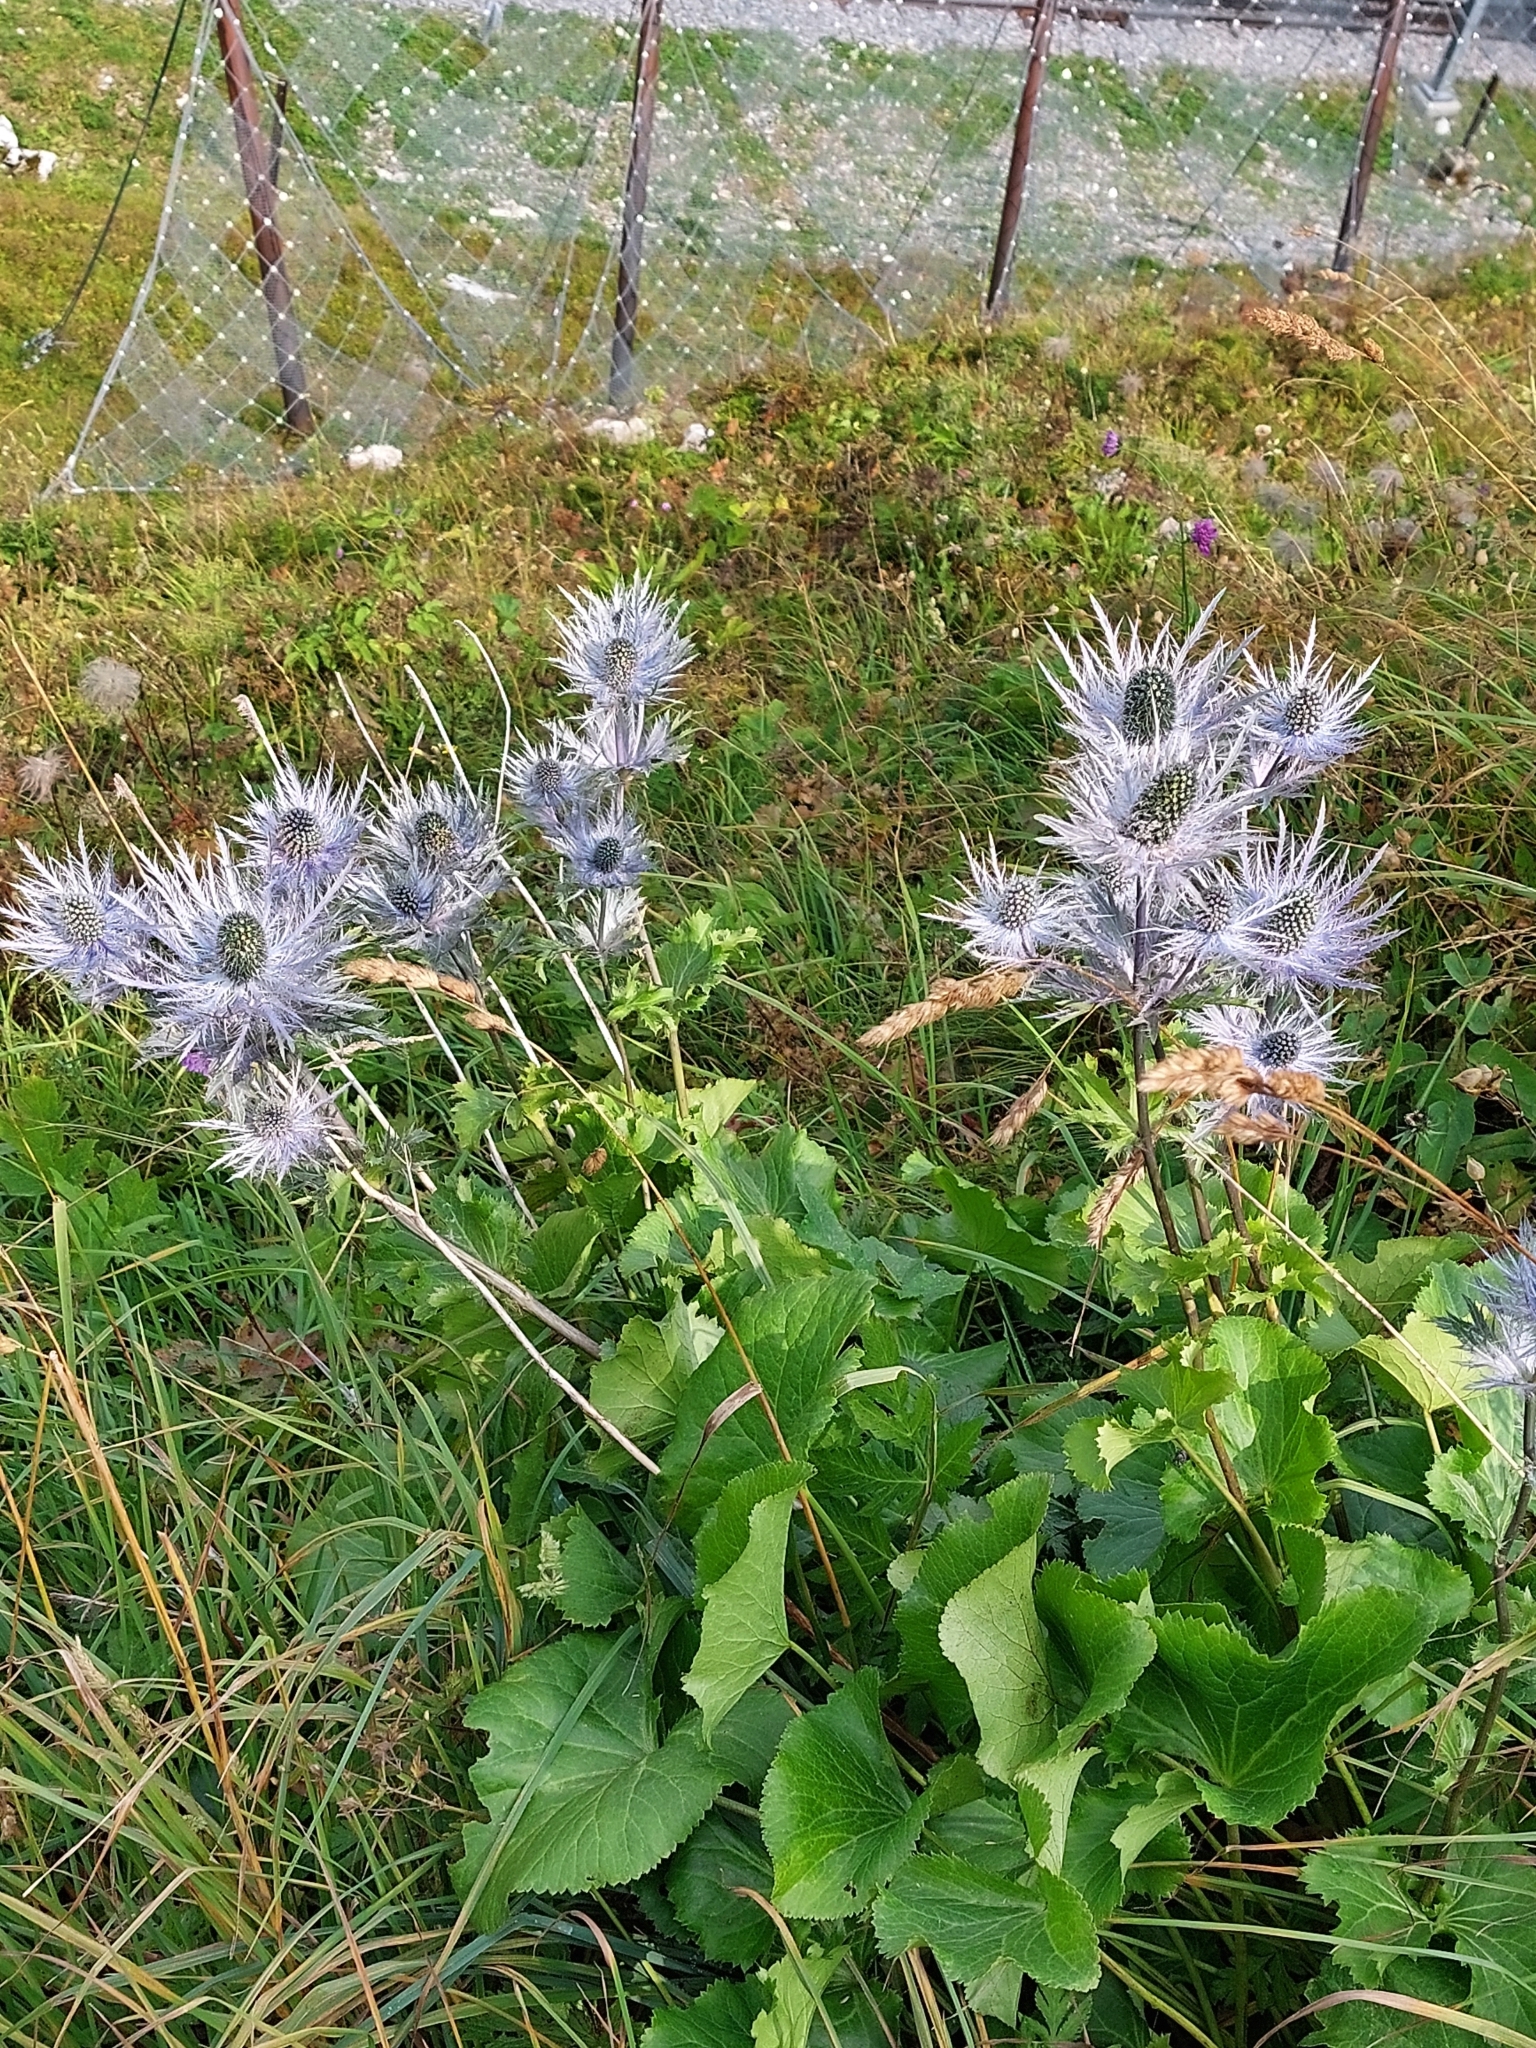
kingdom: Plantae
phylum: Tracheophyta
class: Magnoliopsida
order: Apiales
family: Apiaceae
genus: Eryngium
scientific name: Eryngium alpinum
